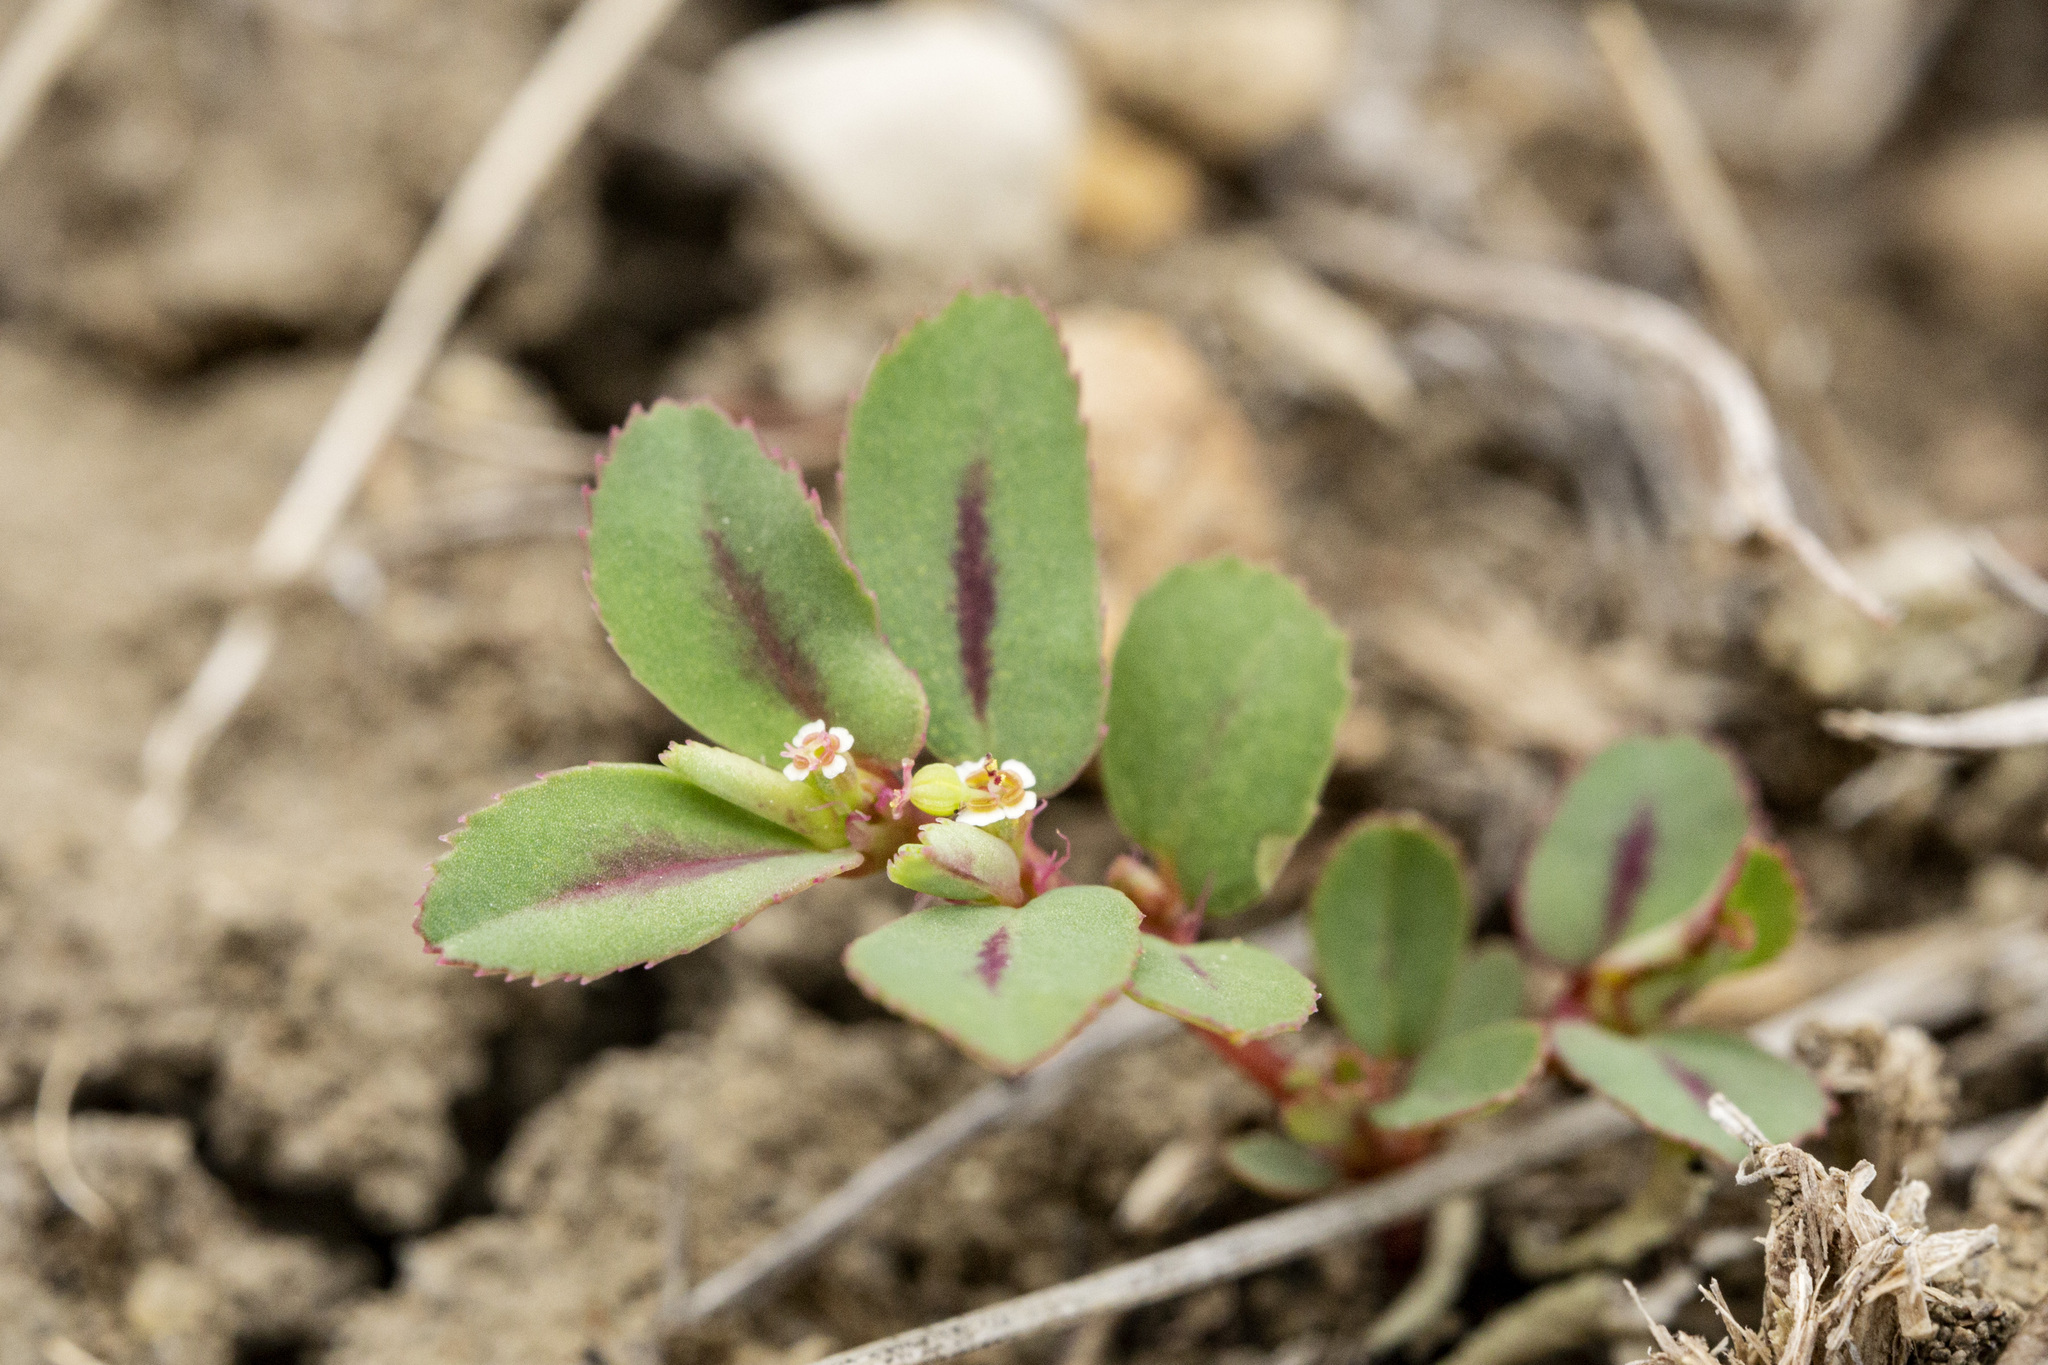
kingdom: Plantae
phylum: Tracheophyta
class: Magnoliopsida
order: Malpighiales
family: Euphorbiaceae
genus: Euphorbia
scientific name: Euphorbia serpillifolia
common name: Thyme-leaf spurge
